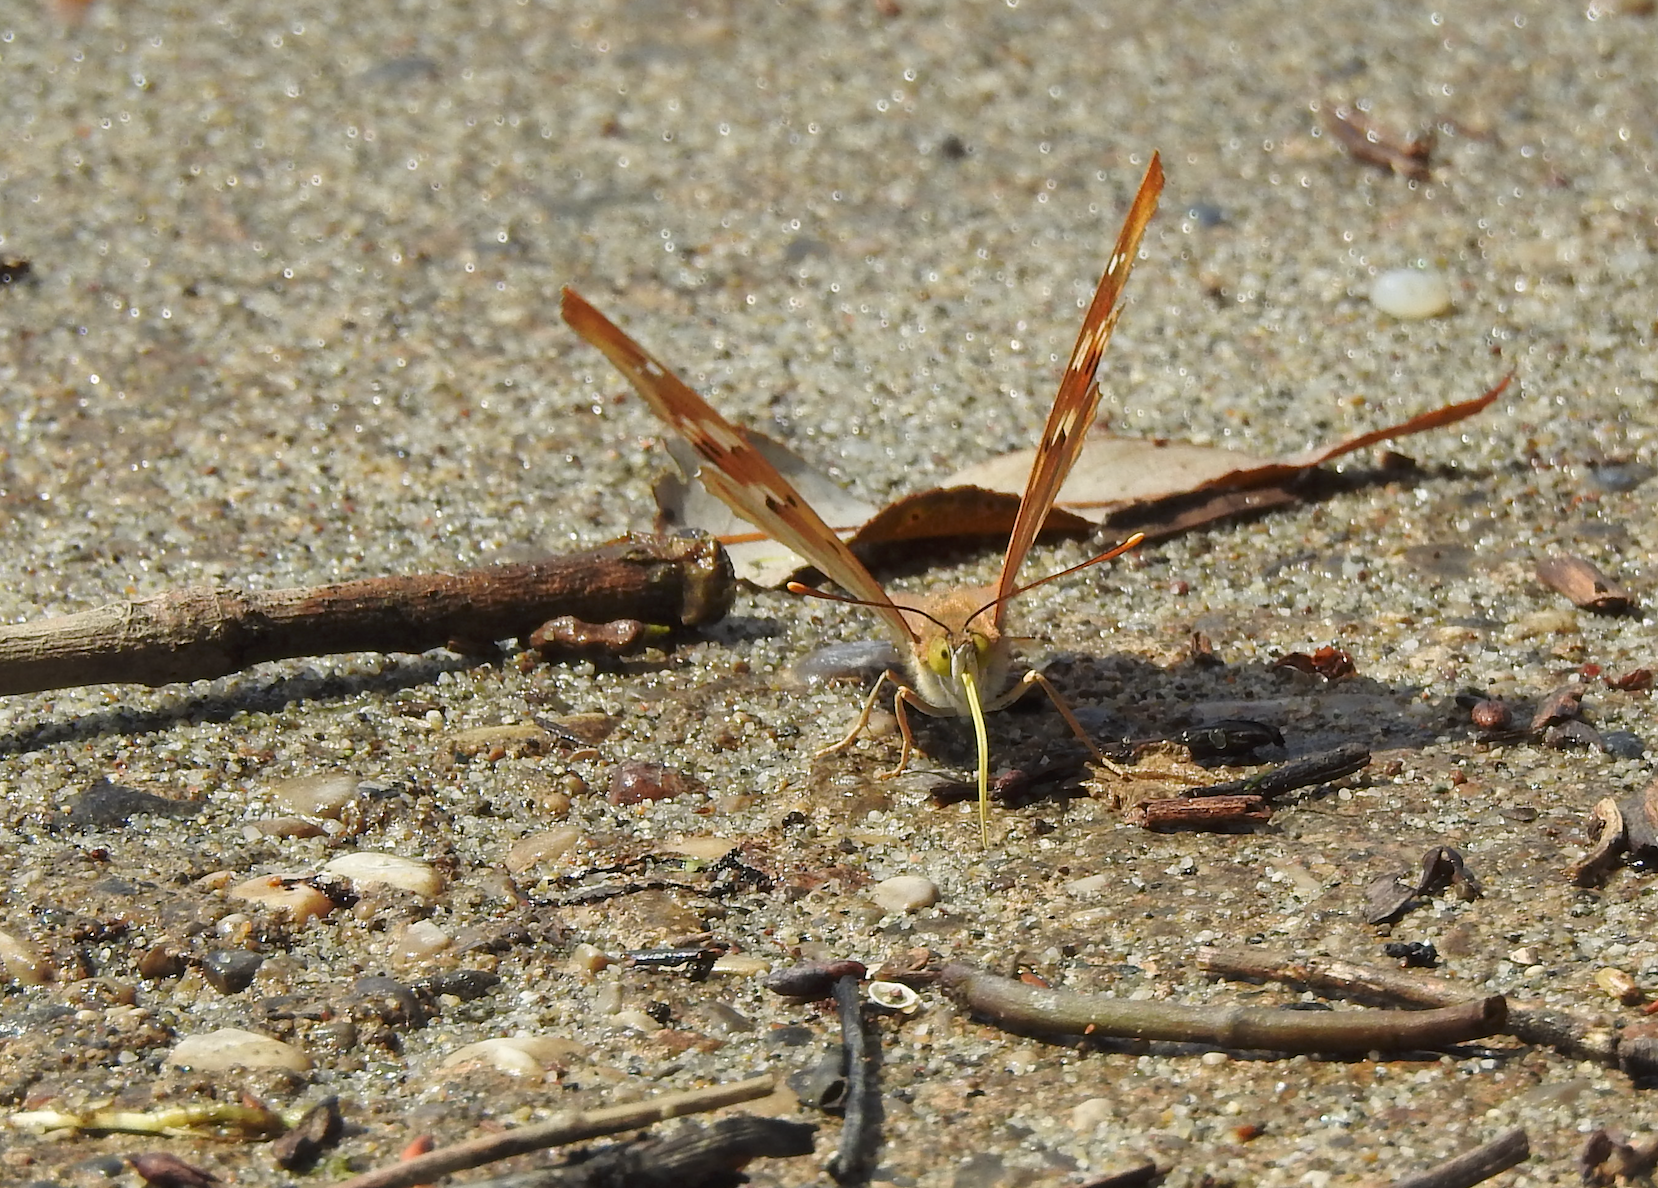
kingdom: Animalia
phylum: Arthropoda
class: Insecta
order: Lepidoptera
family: Nymphalidae
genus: Apatura
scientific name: Apatura ilia
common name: Lesser purple emperor
